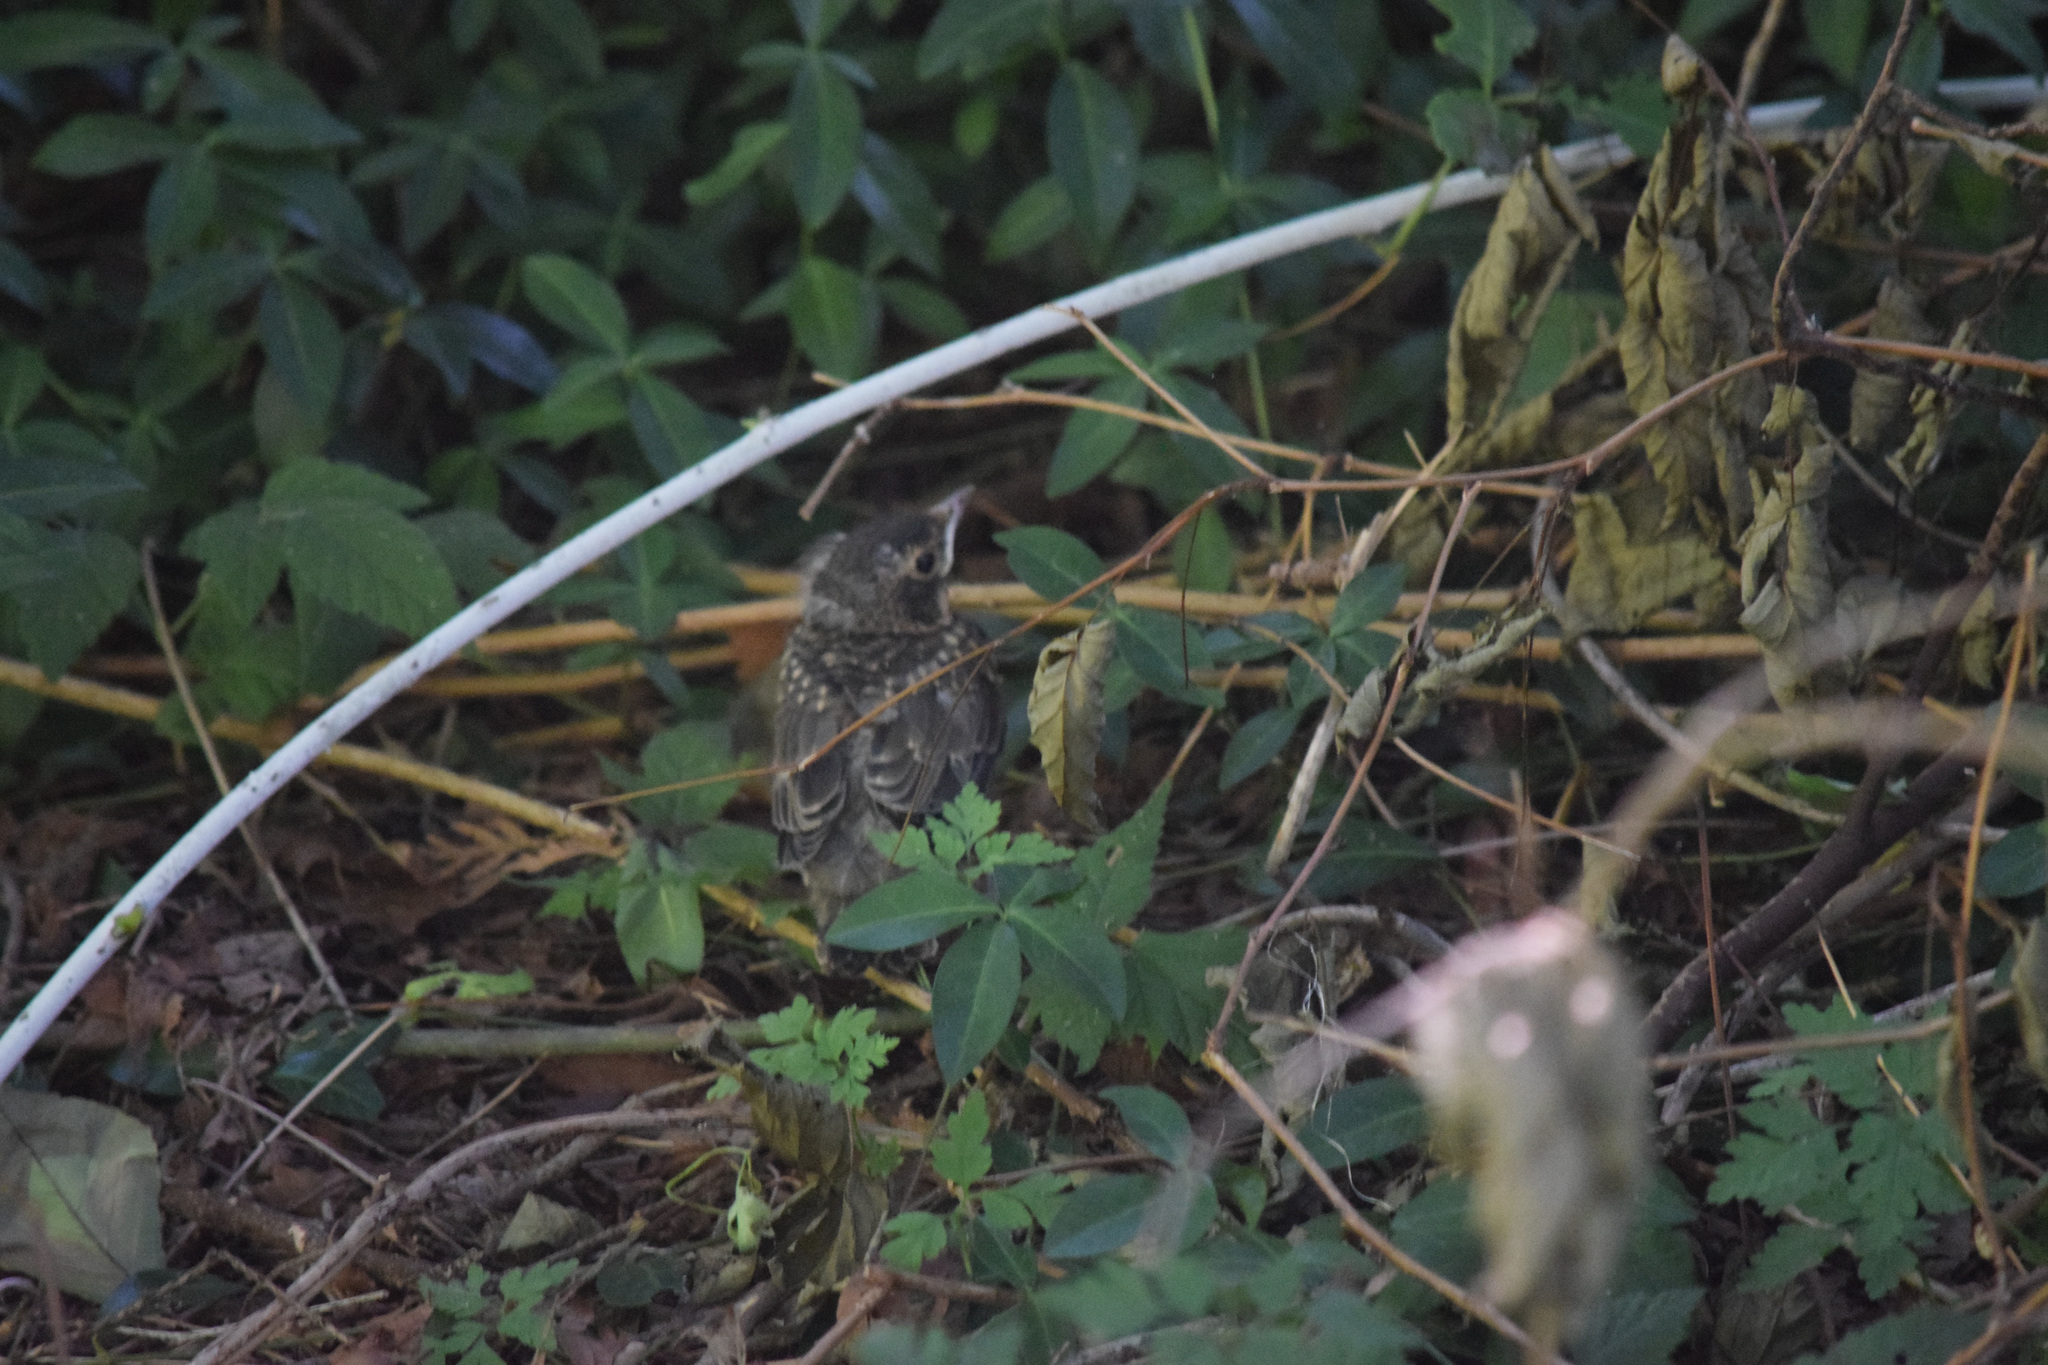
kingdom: Animalia
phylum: Chordata
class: Aves
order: Passeriformes
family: Turdidae
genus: Turdus
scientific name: Turdus migratorius
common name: American robin
